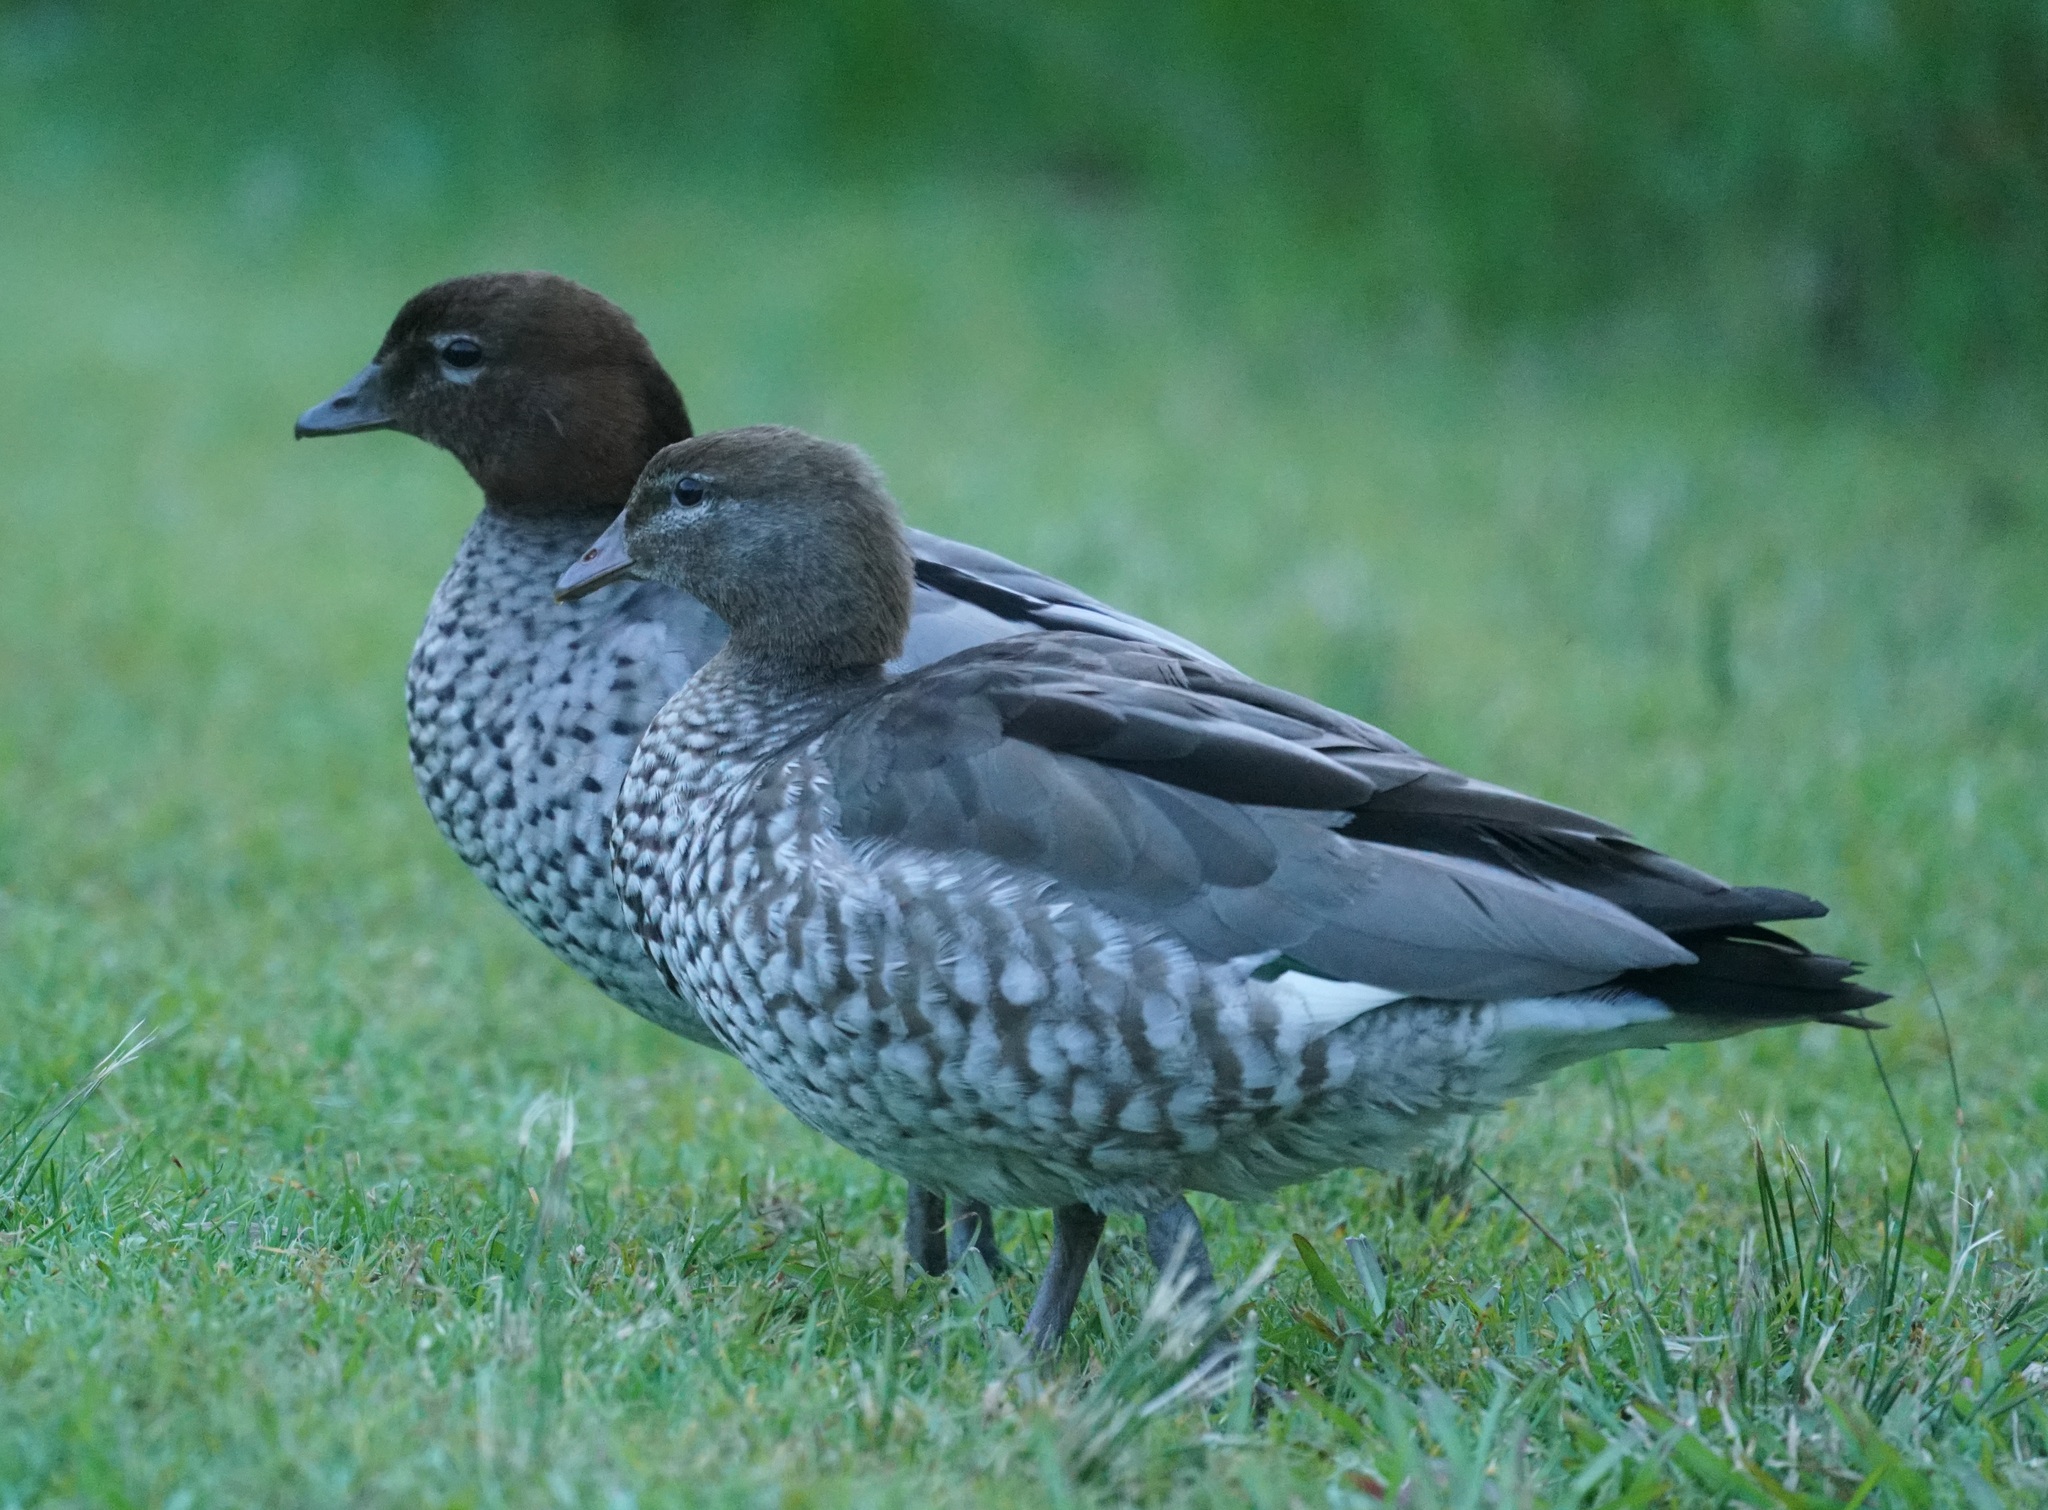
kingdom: Animalia
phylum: Chordata
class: Aves
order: Anseriformes
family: Anatidae
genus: Chenonetta
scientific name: Chenonetta jubata
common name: Maned duck
